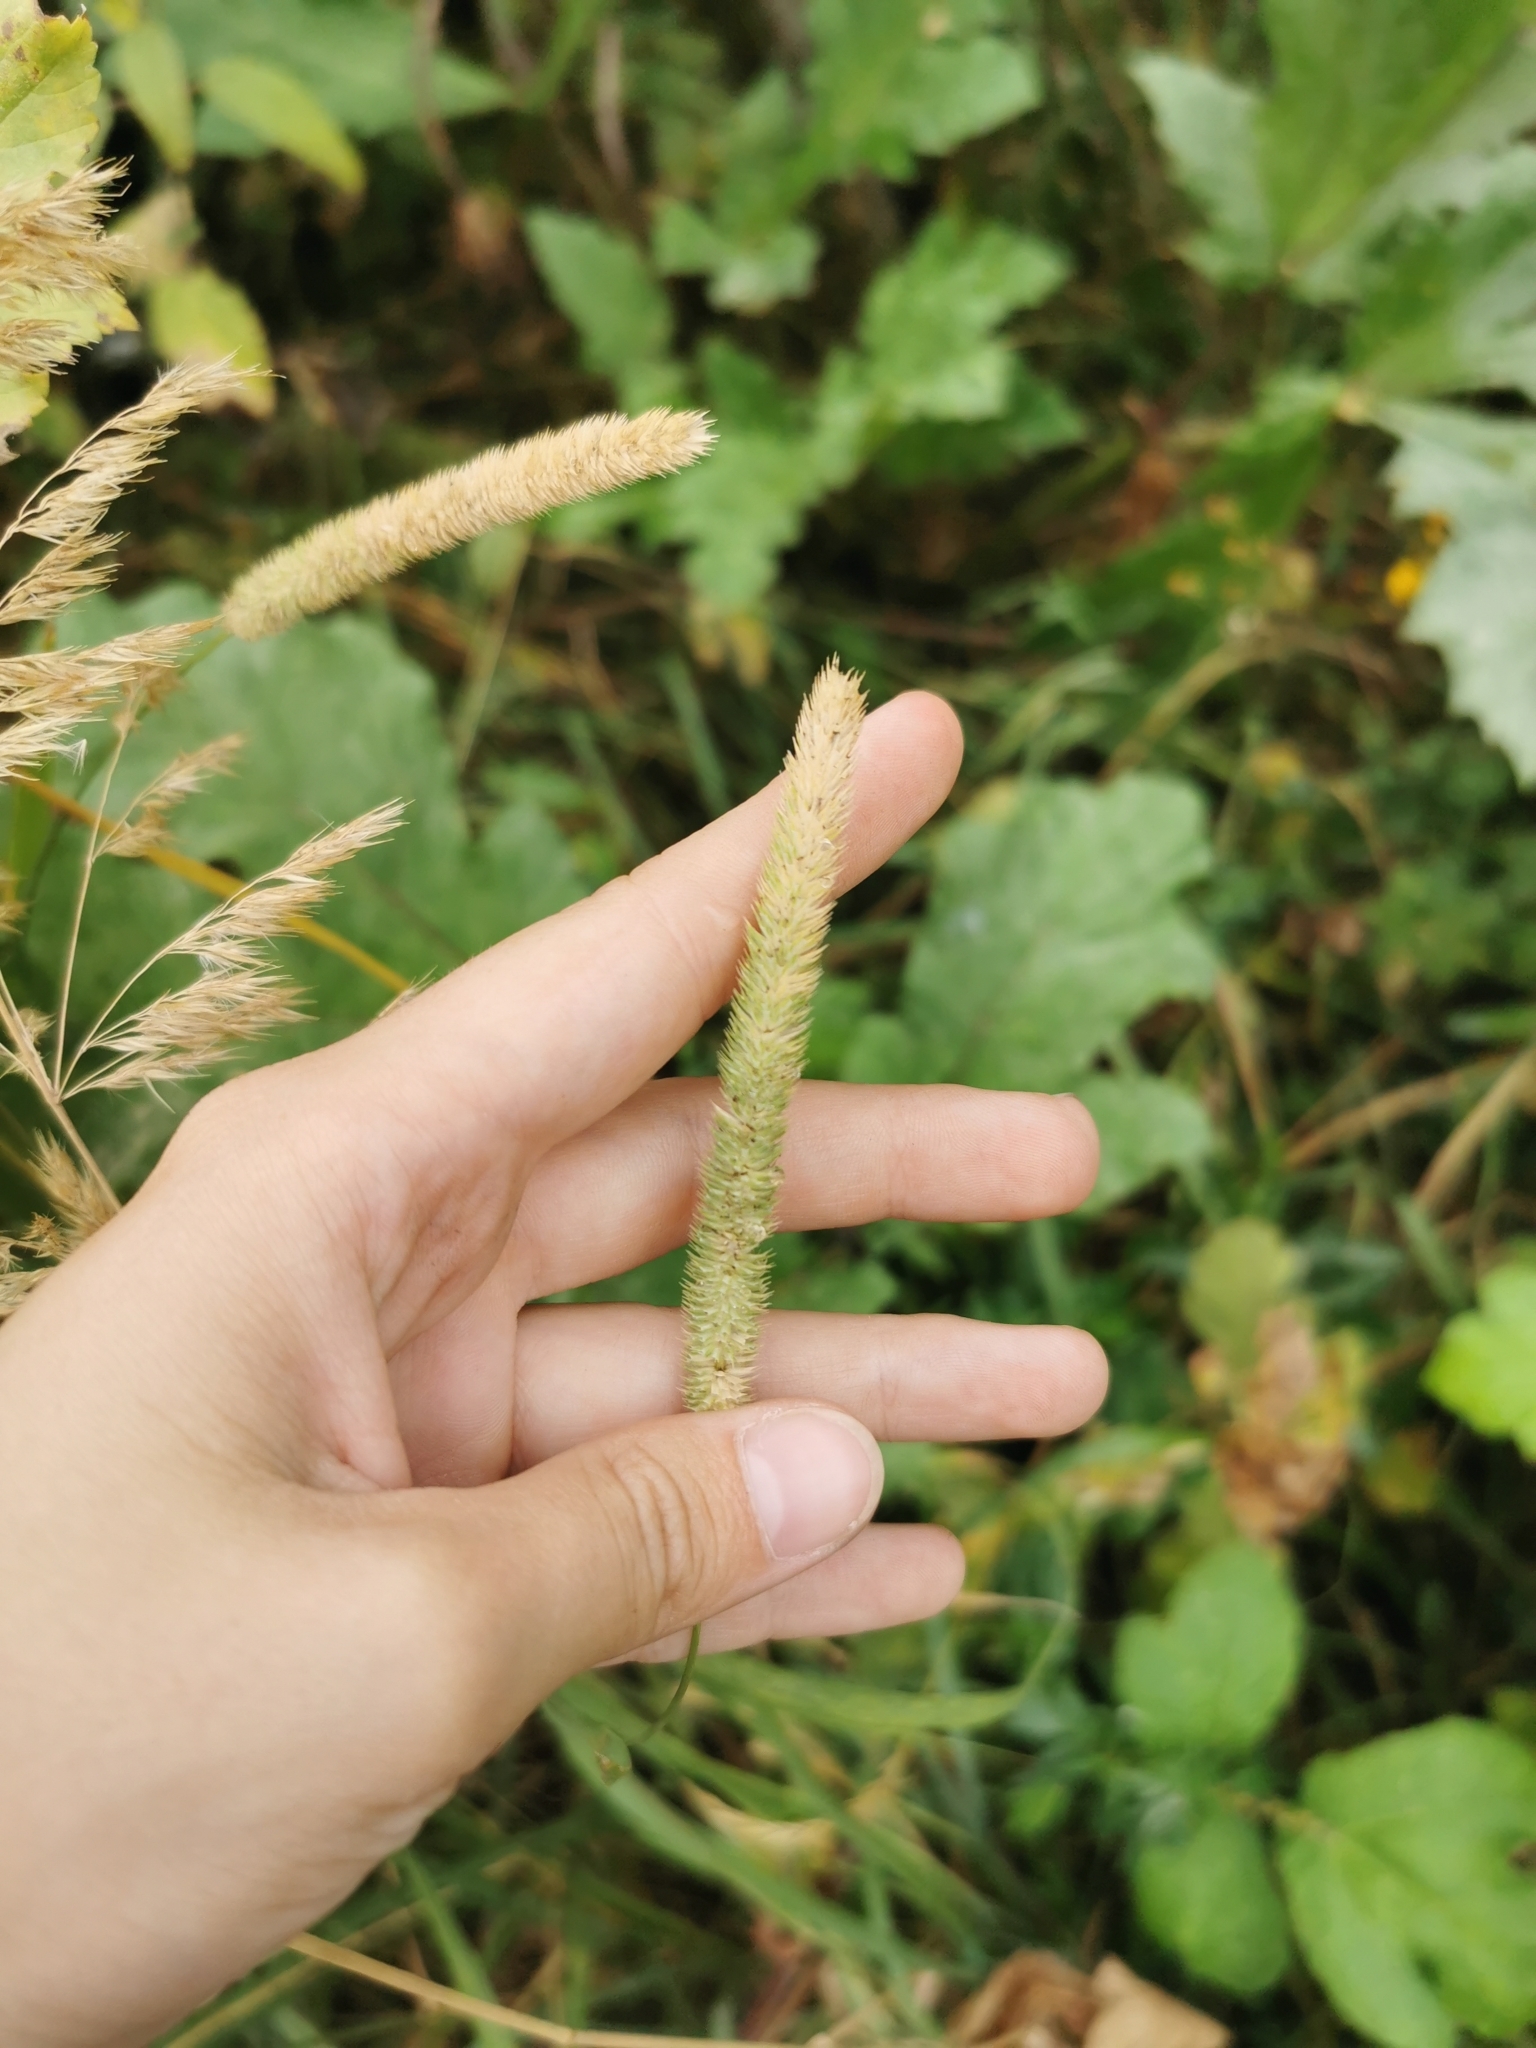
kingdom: Plantae
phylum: Tracheophyta
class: Liliopsida
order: Poales
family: Poaceae
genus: Phleum
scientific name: Phleum pratense
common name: Timothy grass
